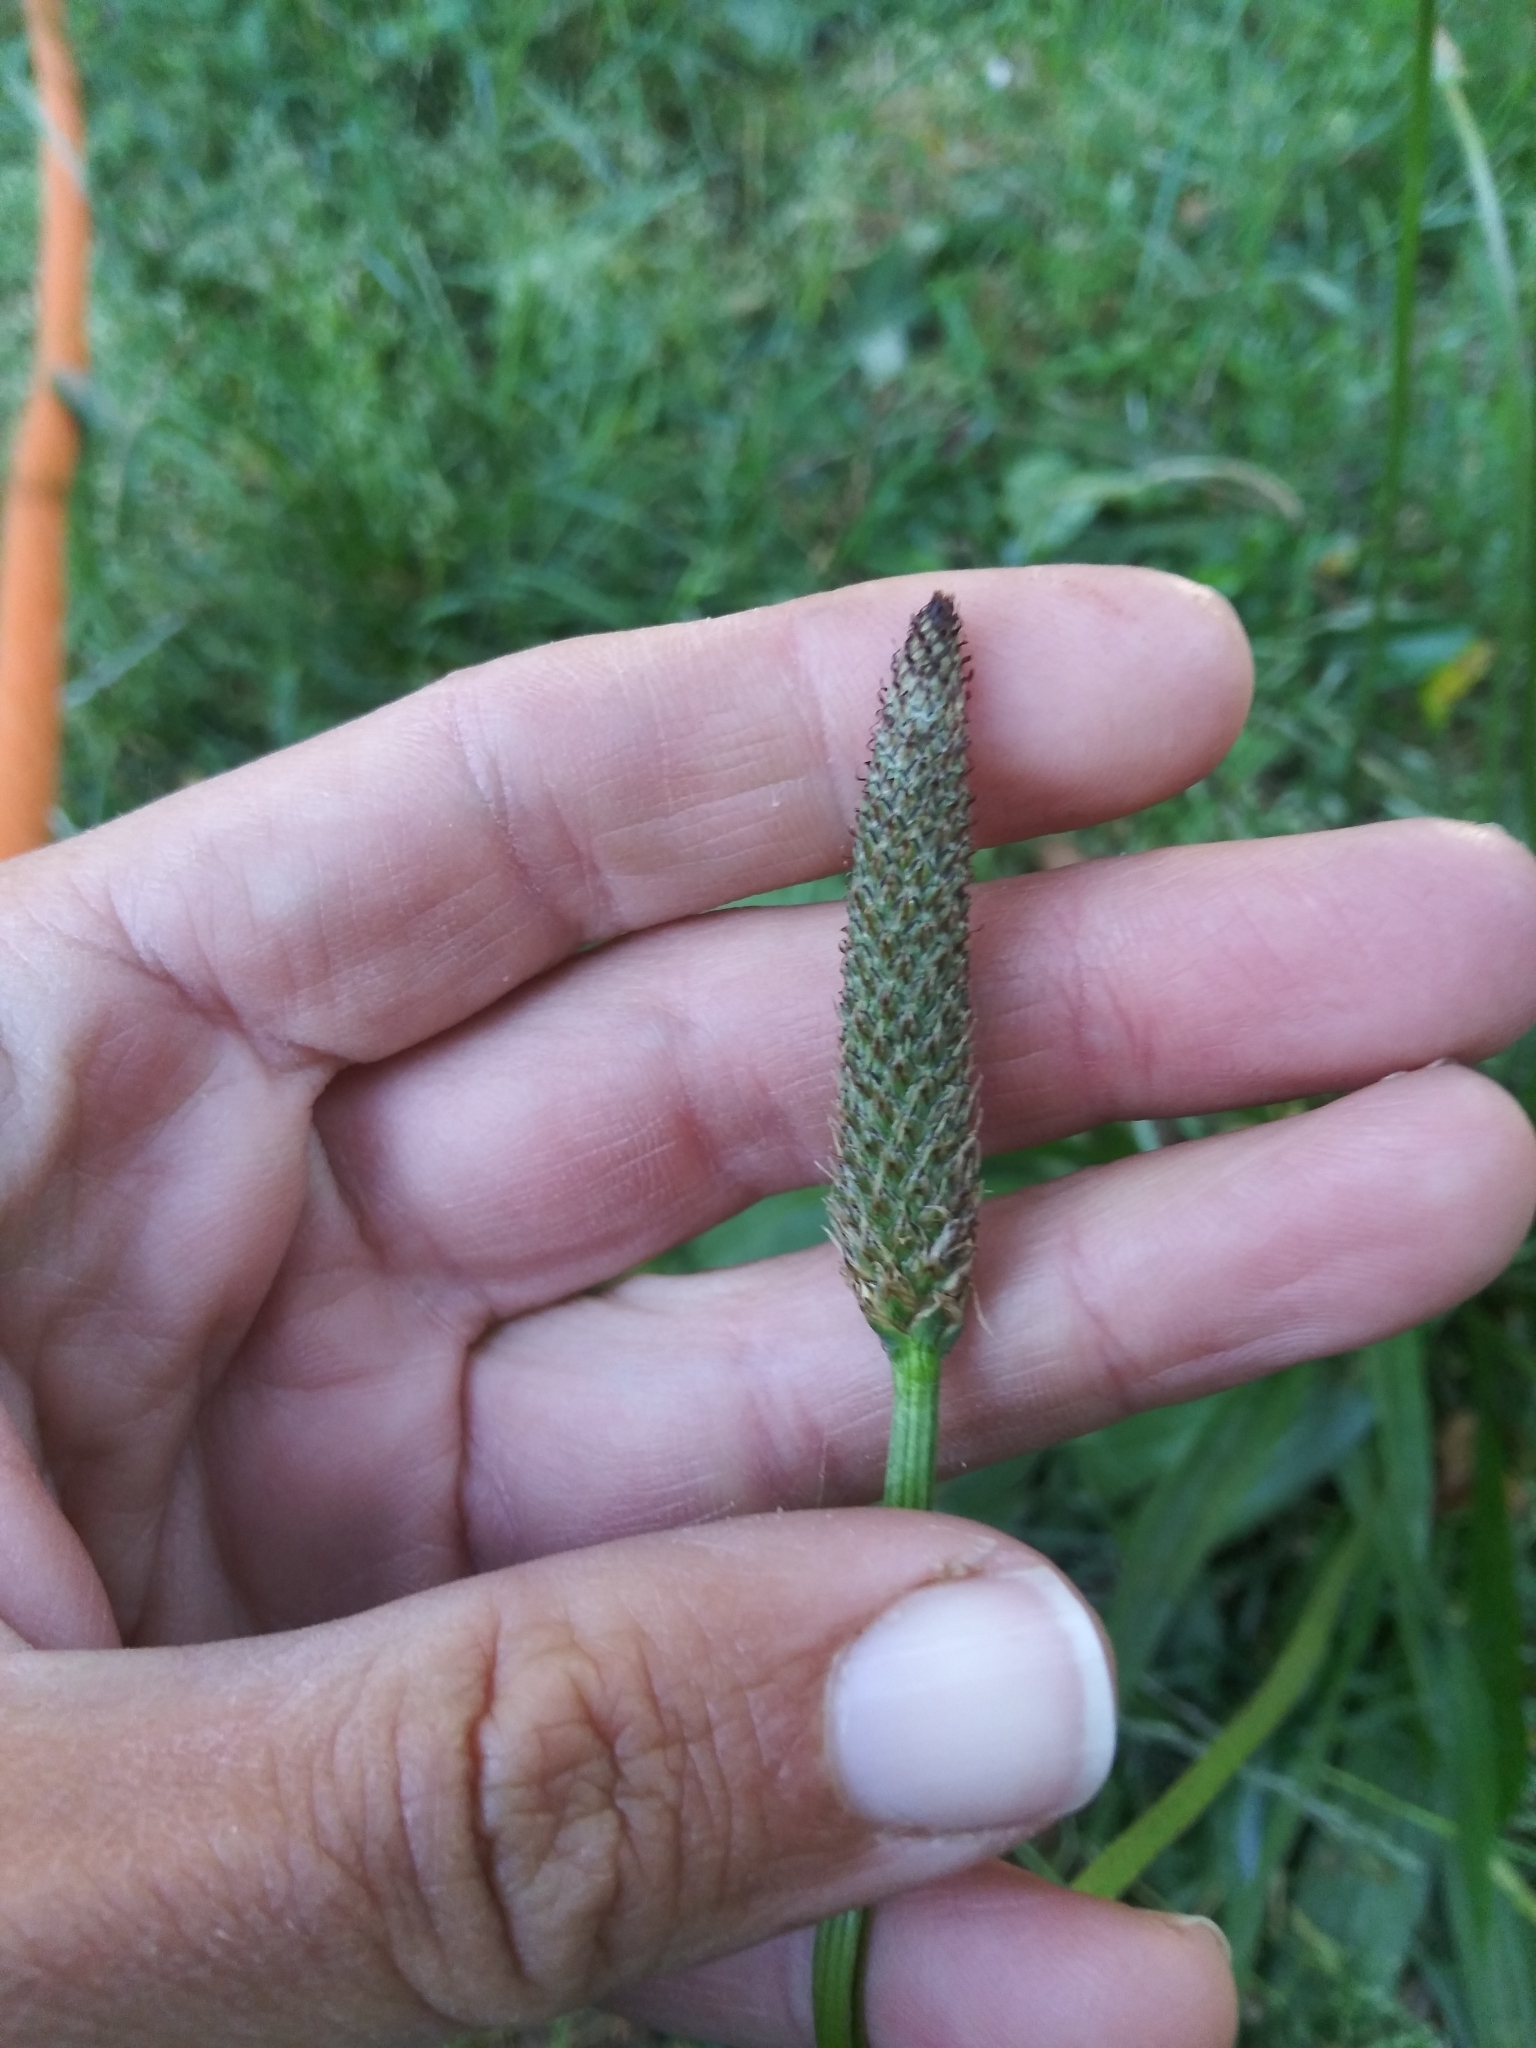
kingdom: Plantae
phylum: Tracheophyta
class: Magnoliopsida
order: Lamiales
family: Plantaginaceae
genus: Plantago
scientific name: Plantago lanceolata
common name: Ribwort plantain
